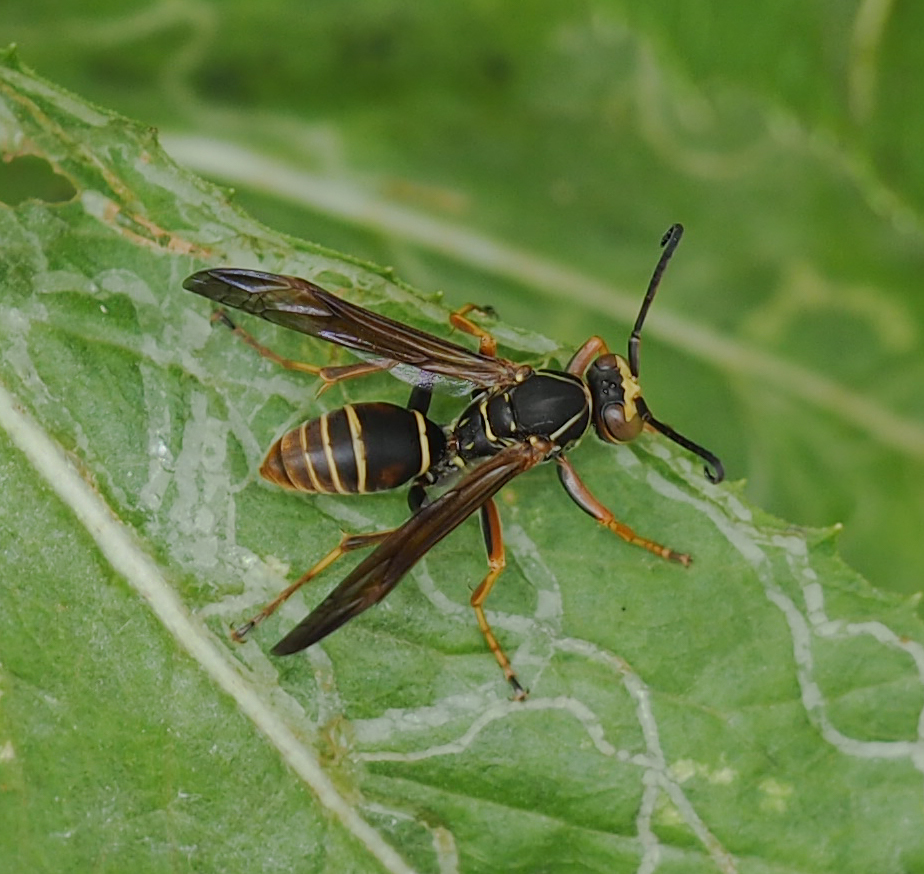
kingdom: Animalia
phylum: Arthropoda
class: Insecta
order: Hymenoptera
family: Eumenidae
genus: Polistes
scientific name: Polistes fuscatus
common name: Dark paper wasp
